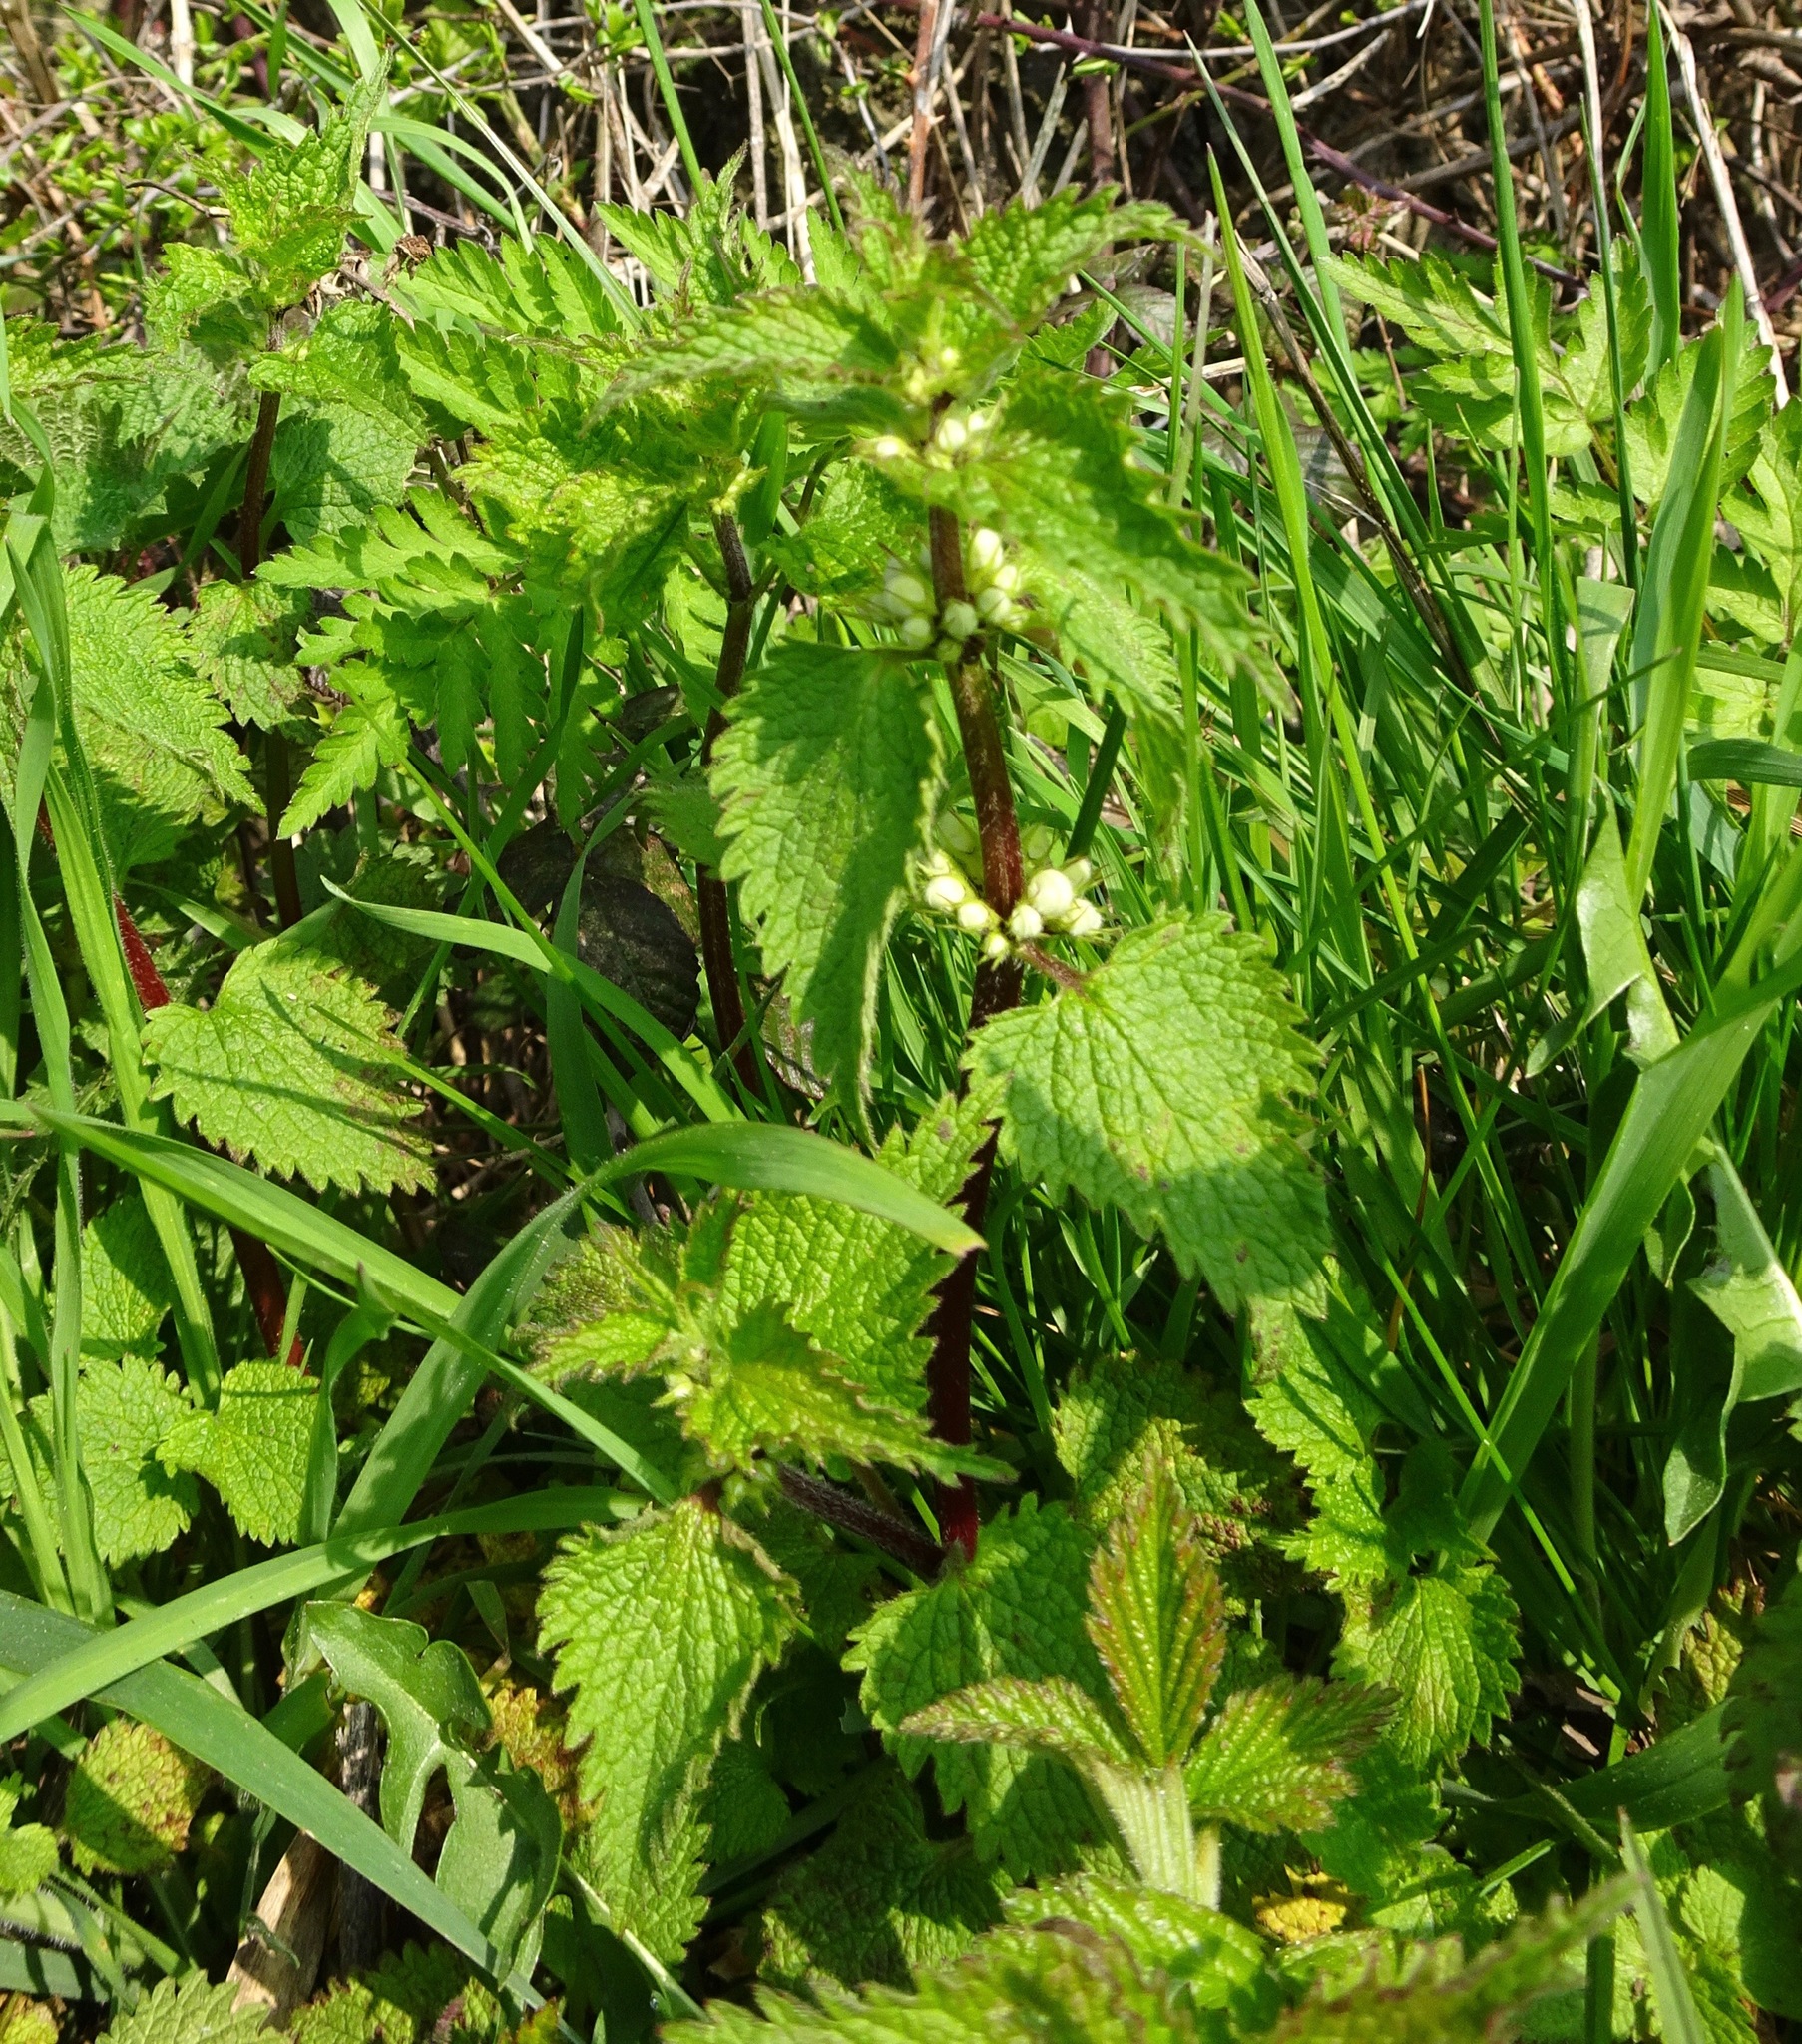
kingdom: Plantae
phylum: Tracheophyta
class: Magnoliopsida
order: Lamiales
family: Lamiaceae
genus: Lamium
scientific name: Lamium album
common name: White dead-nettle
